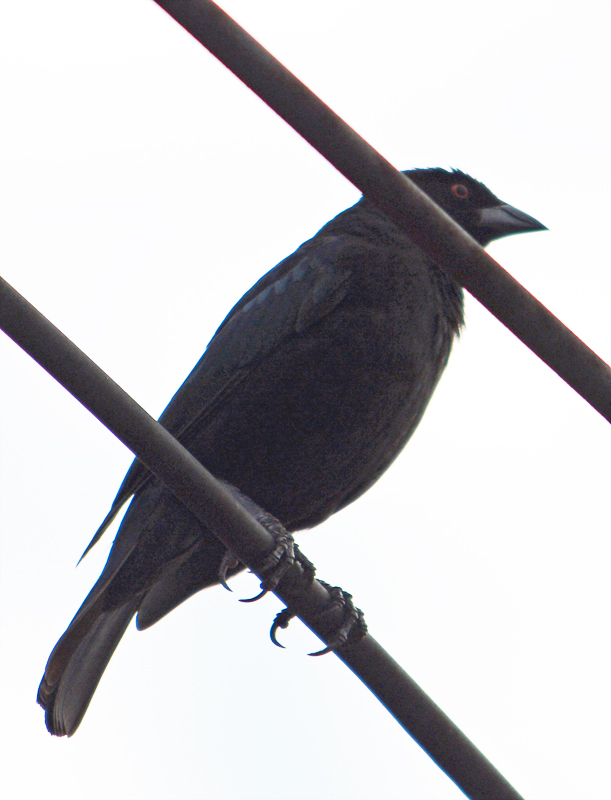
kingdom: Animalia
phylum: Chordata
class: Aves
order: Passeriformes
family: Icteridae
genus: Molothrus
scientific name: Molothrus aeneus
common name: Bronzed cowbird
